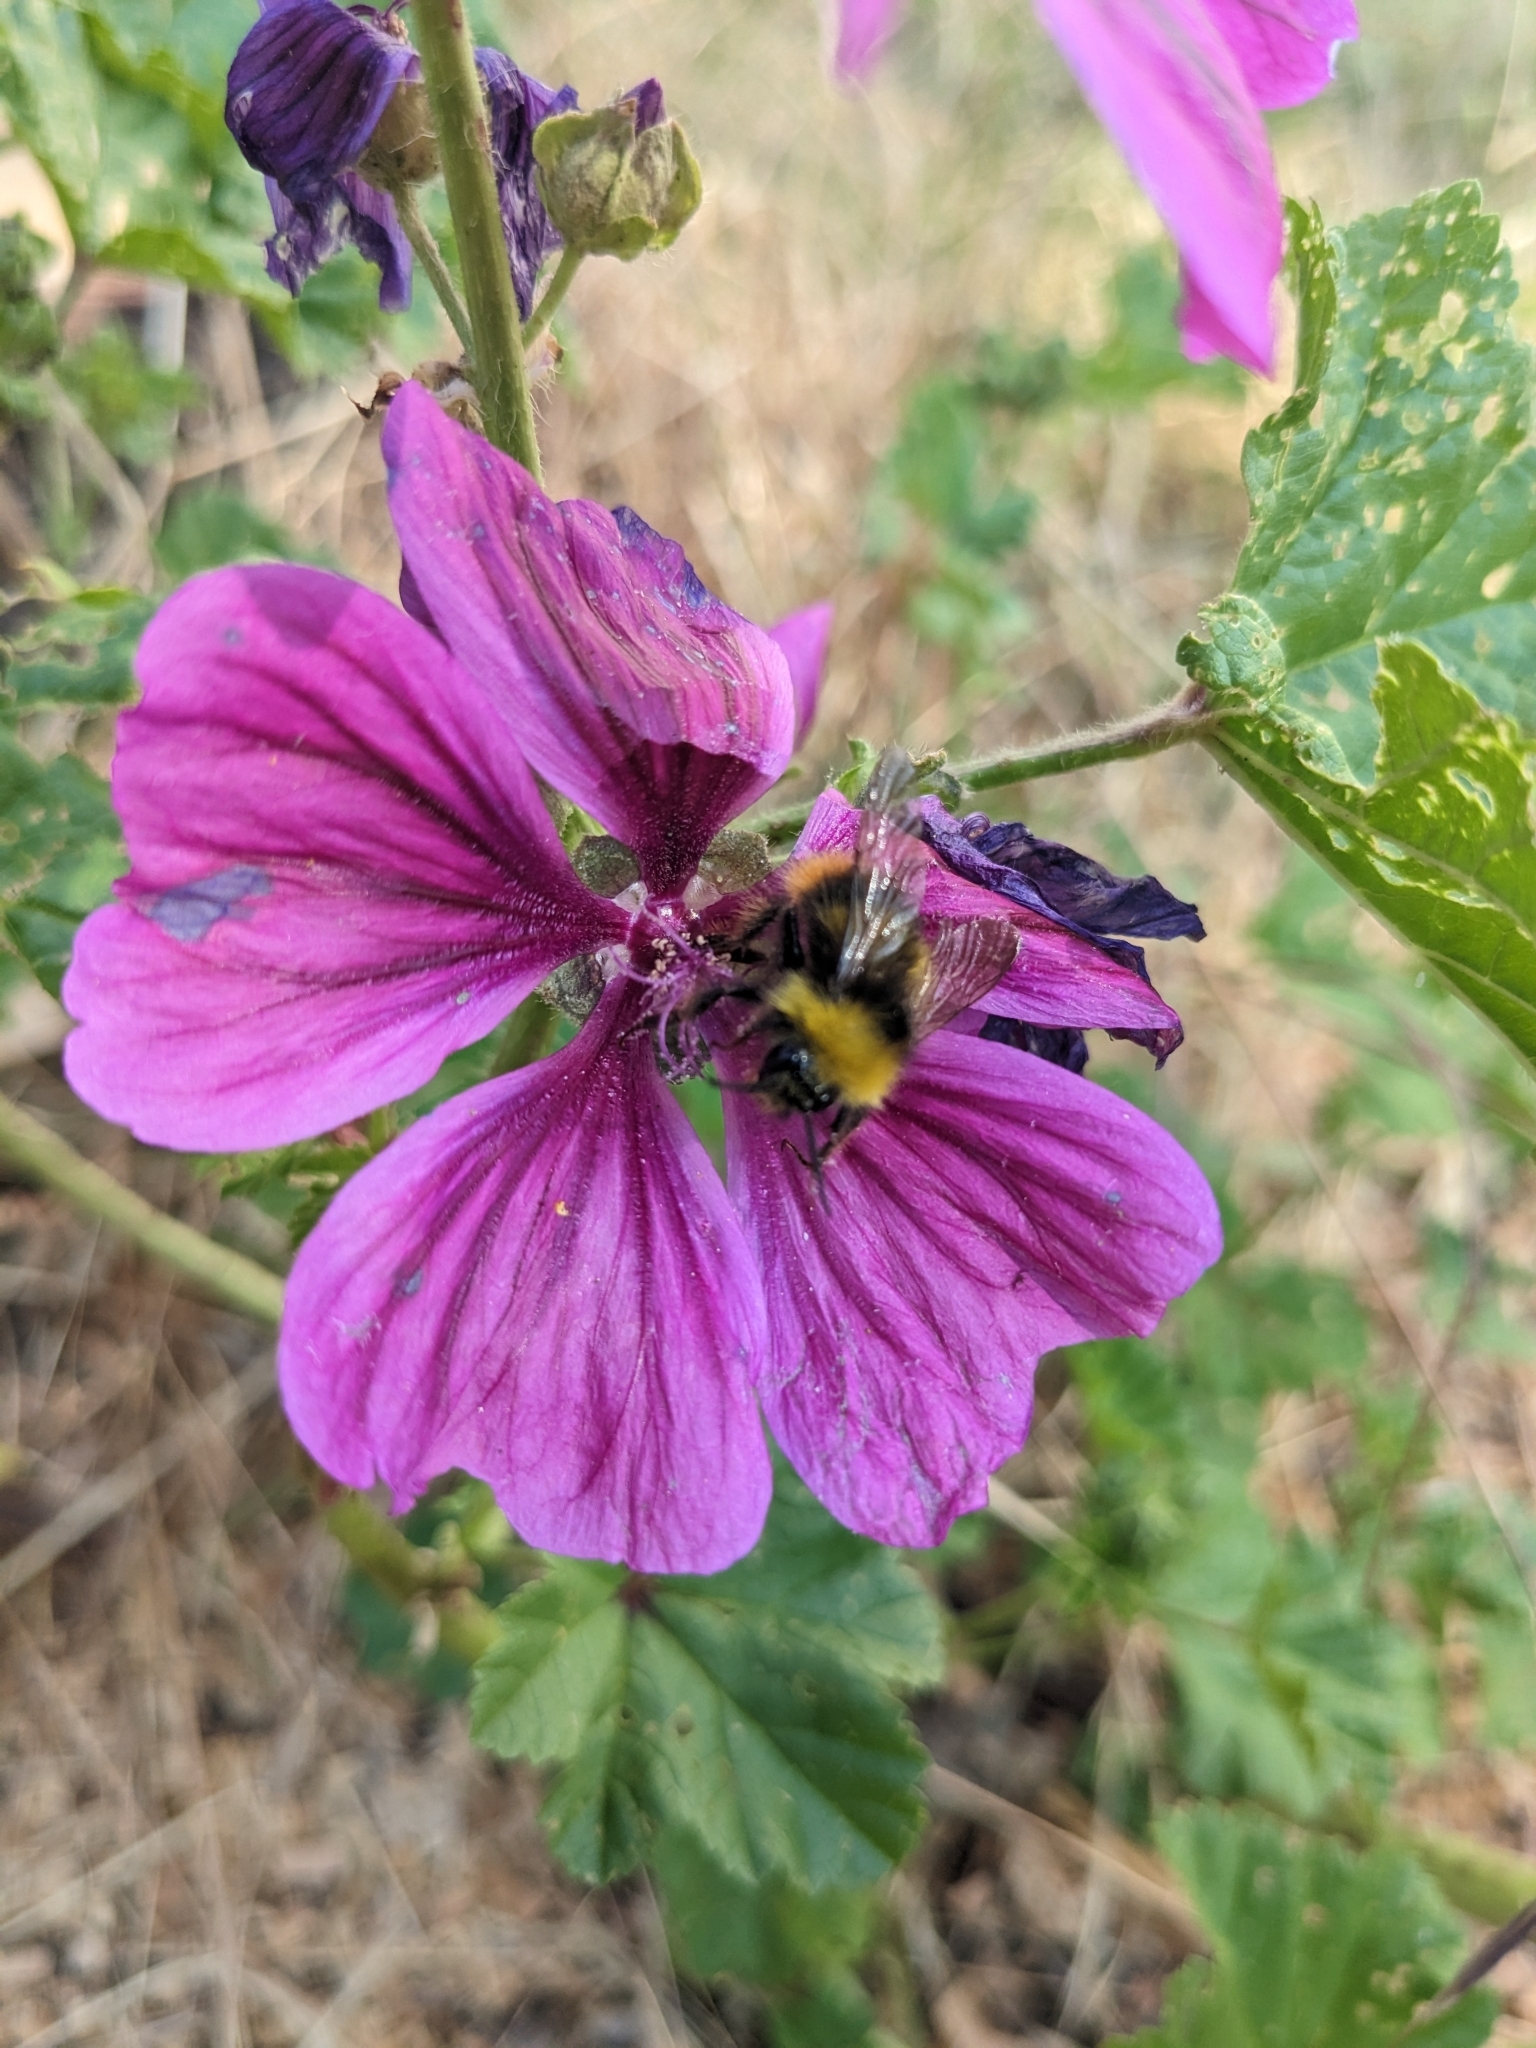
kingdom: Animalia
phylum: Arthropoda
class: Insecta
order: Hymenoptera
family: Apidae
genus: Bombus
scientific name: Bombus pratorum
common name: Early humble-bee
